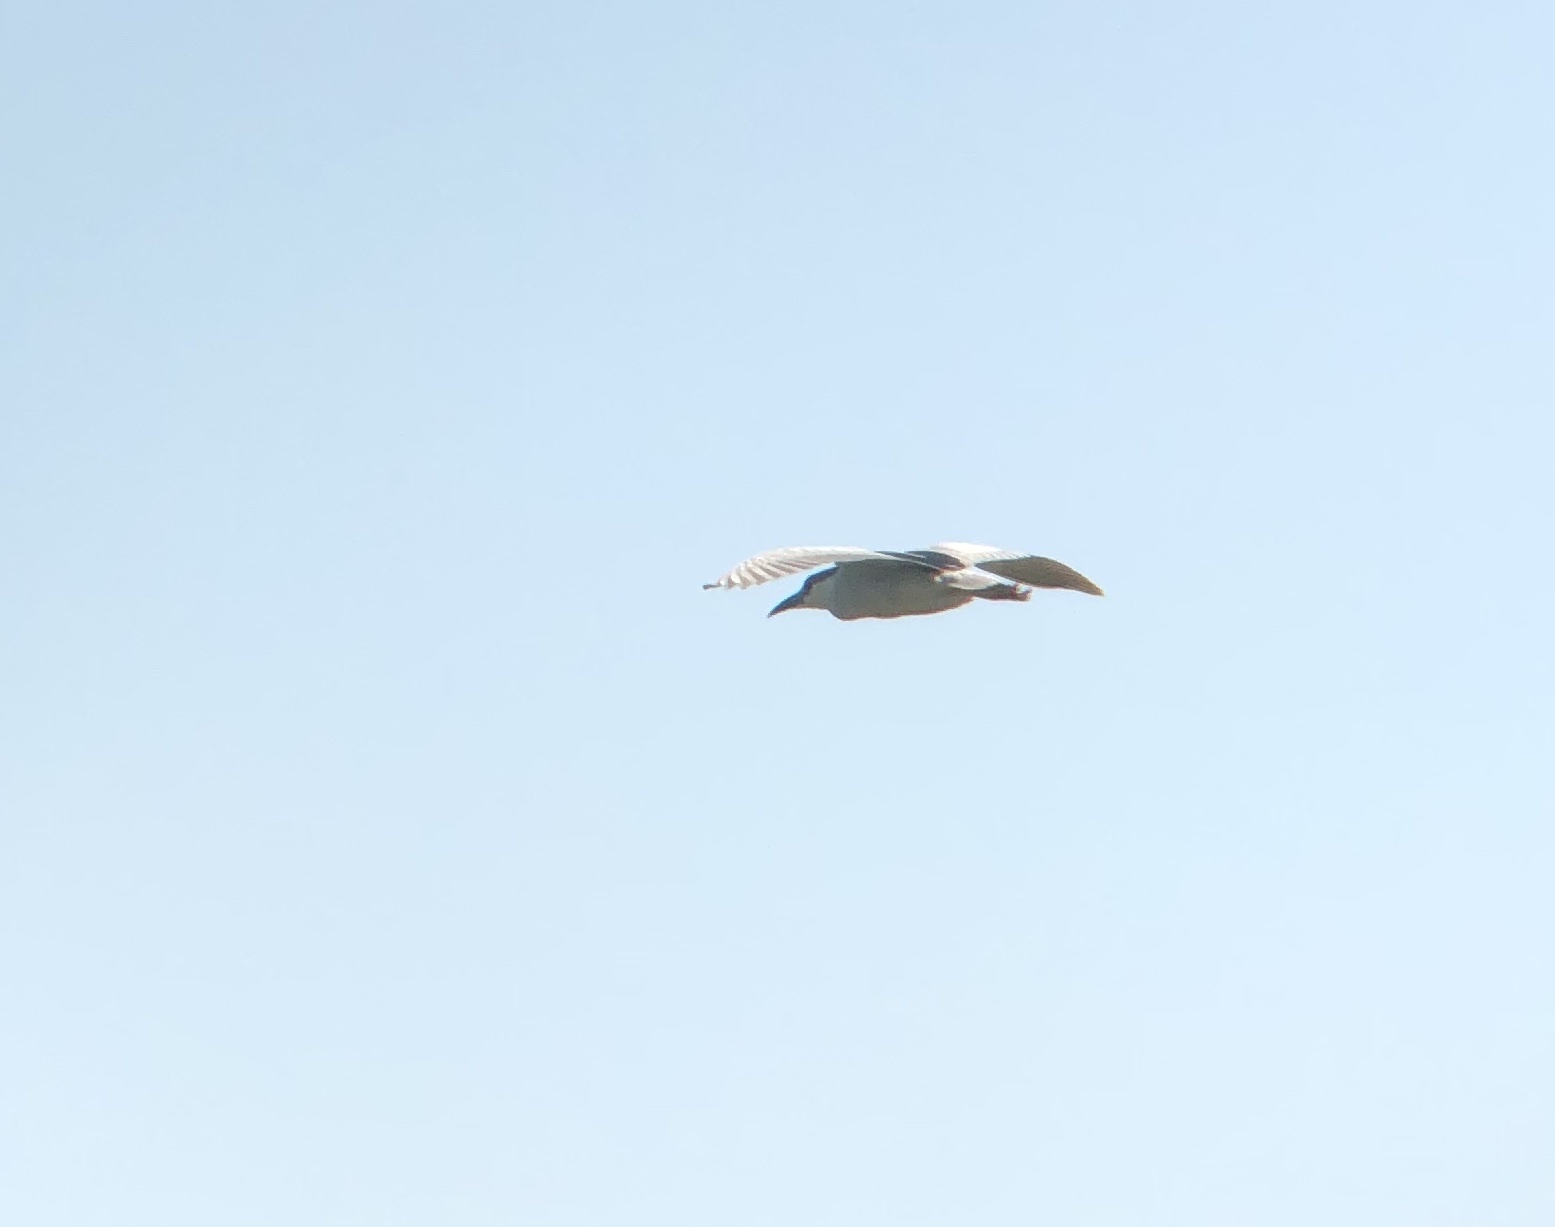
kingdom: Animalia
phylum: Chordata
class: Aves
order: Pelecaniformes
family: Ardeidae
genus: Nycticorax
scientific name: Nycticorax nycticorax
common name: Black-crowned night heron
